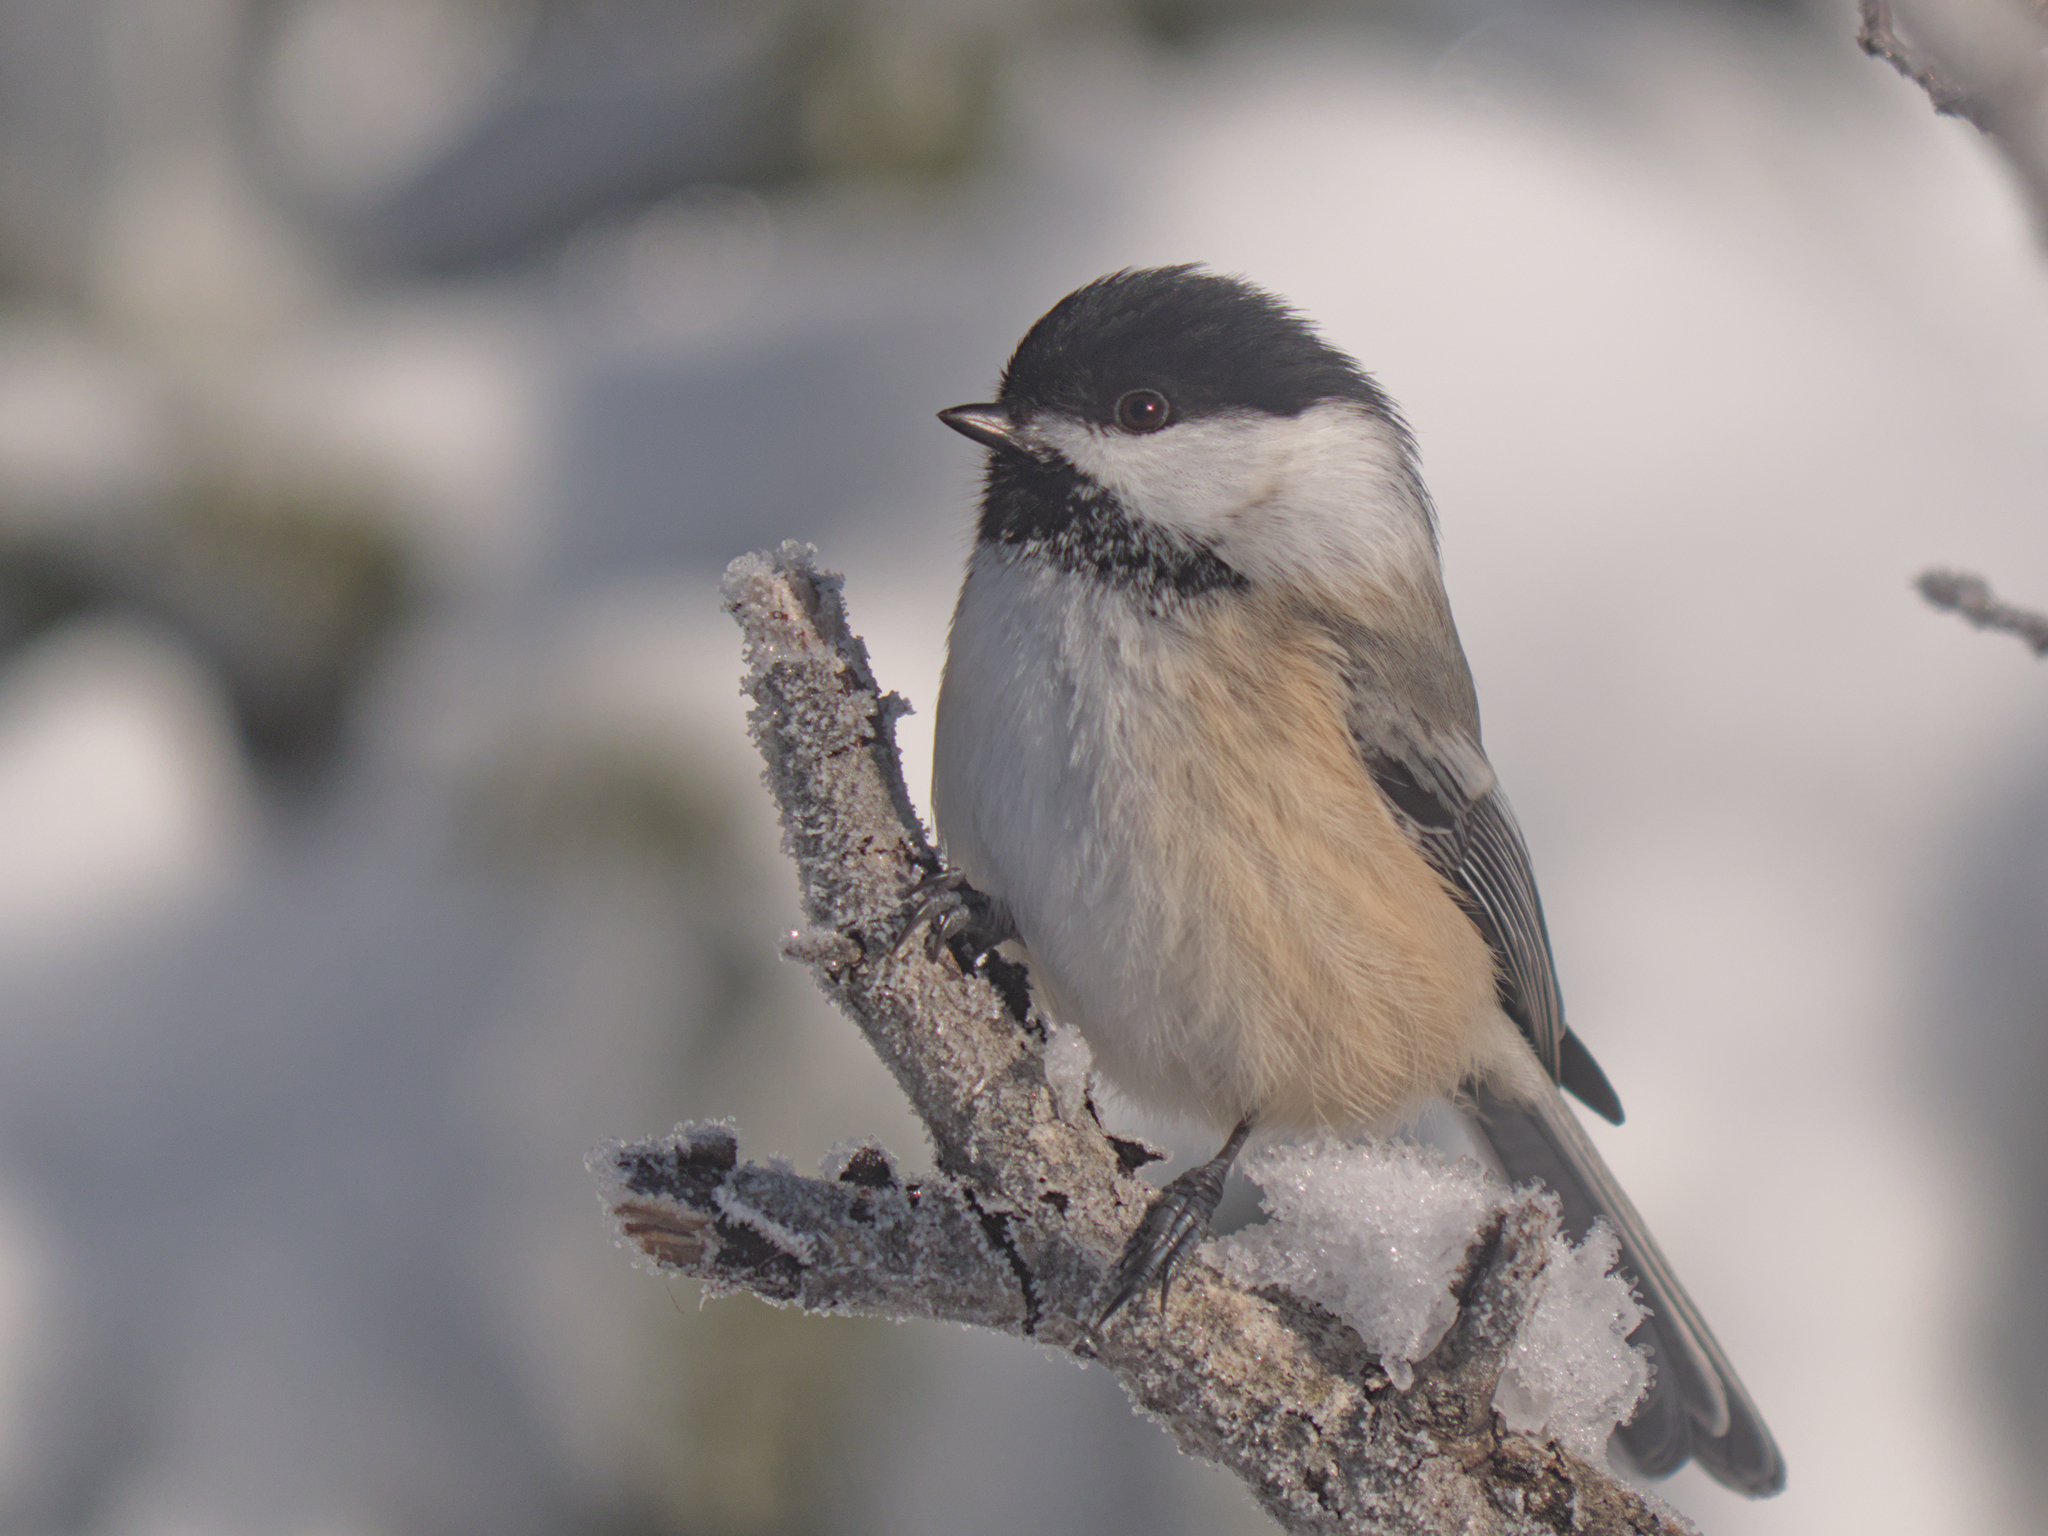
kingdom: Animalia
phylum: Chordata
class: Aves
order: Passeriformes
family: Paridae
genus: Poecile
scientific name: Poecile atricapillus
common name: Black-capped chickadee
